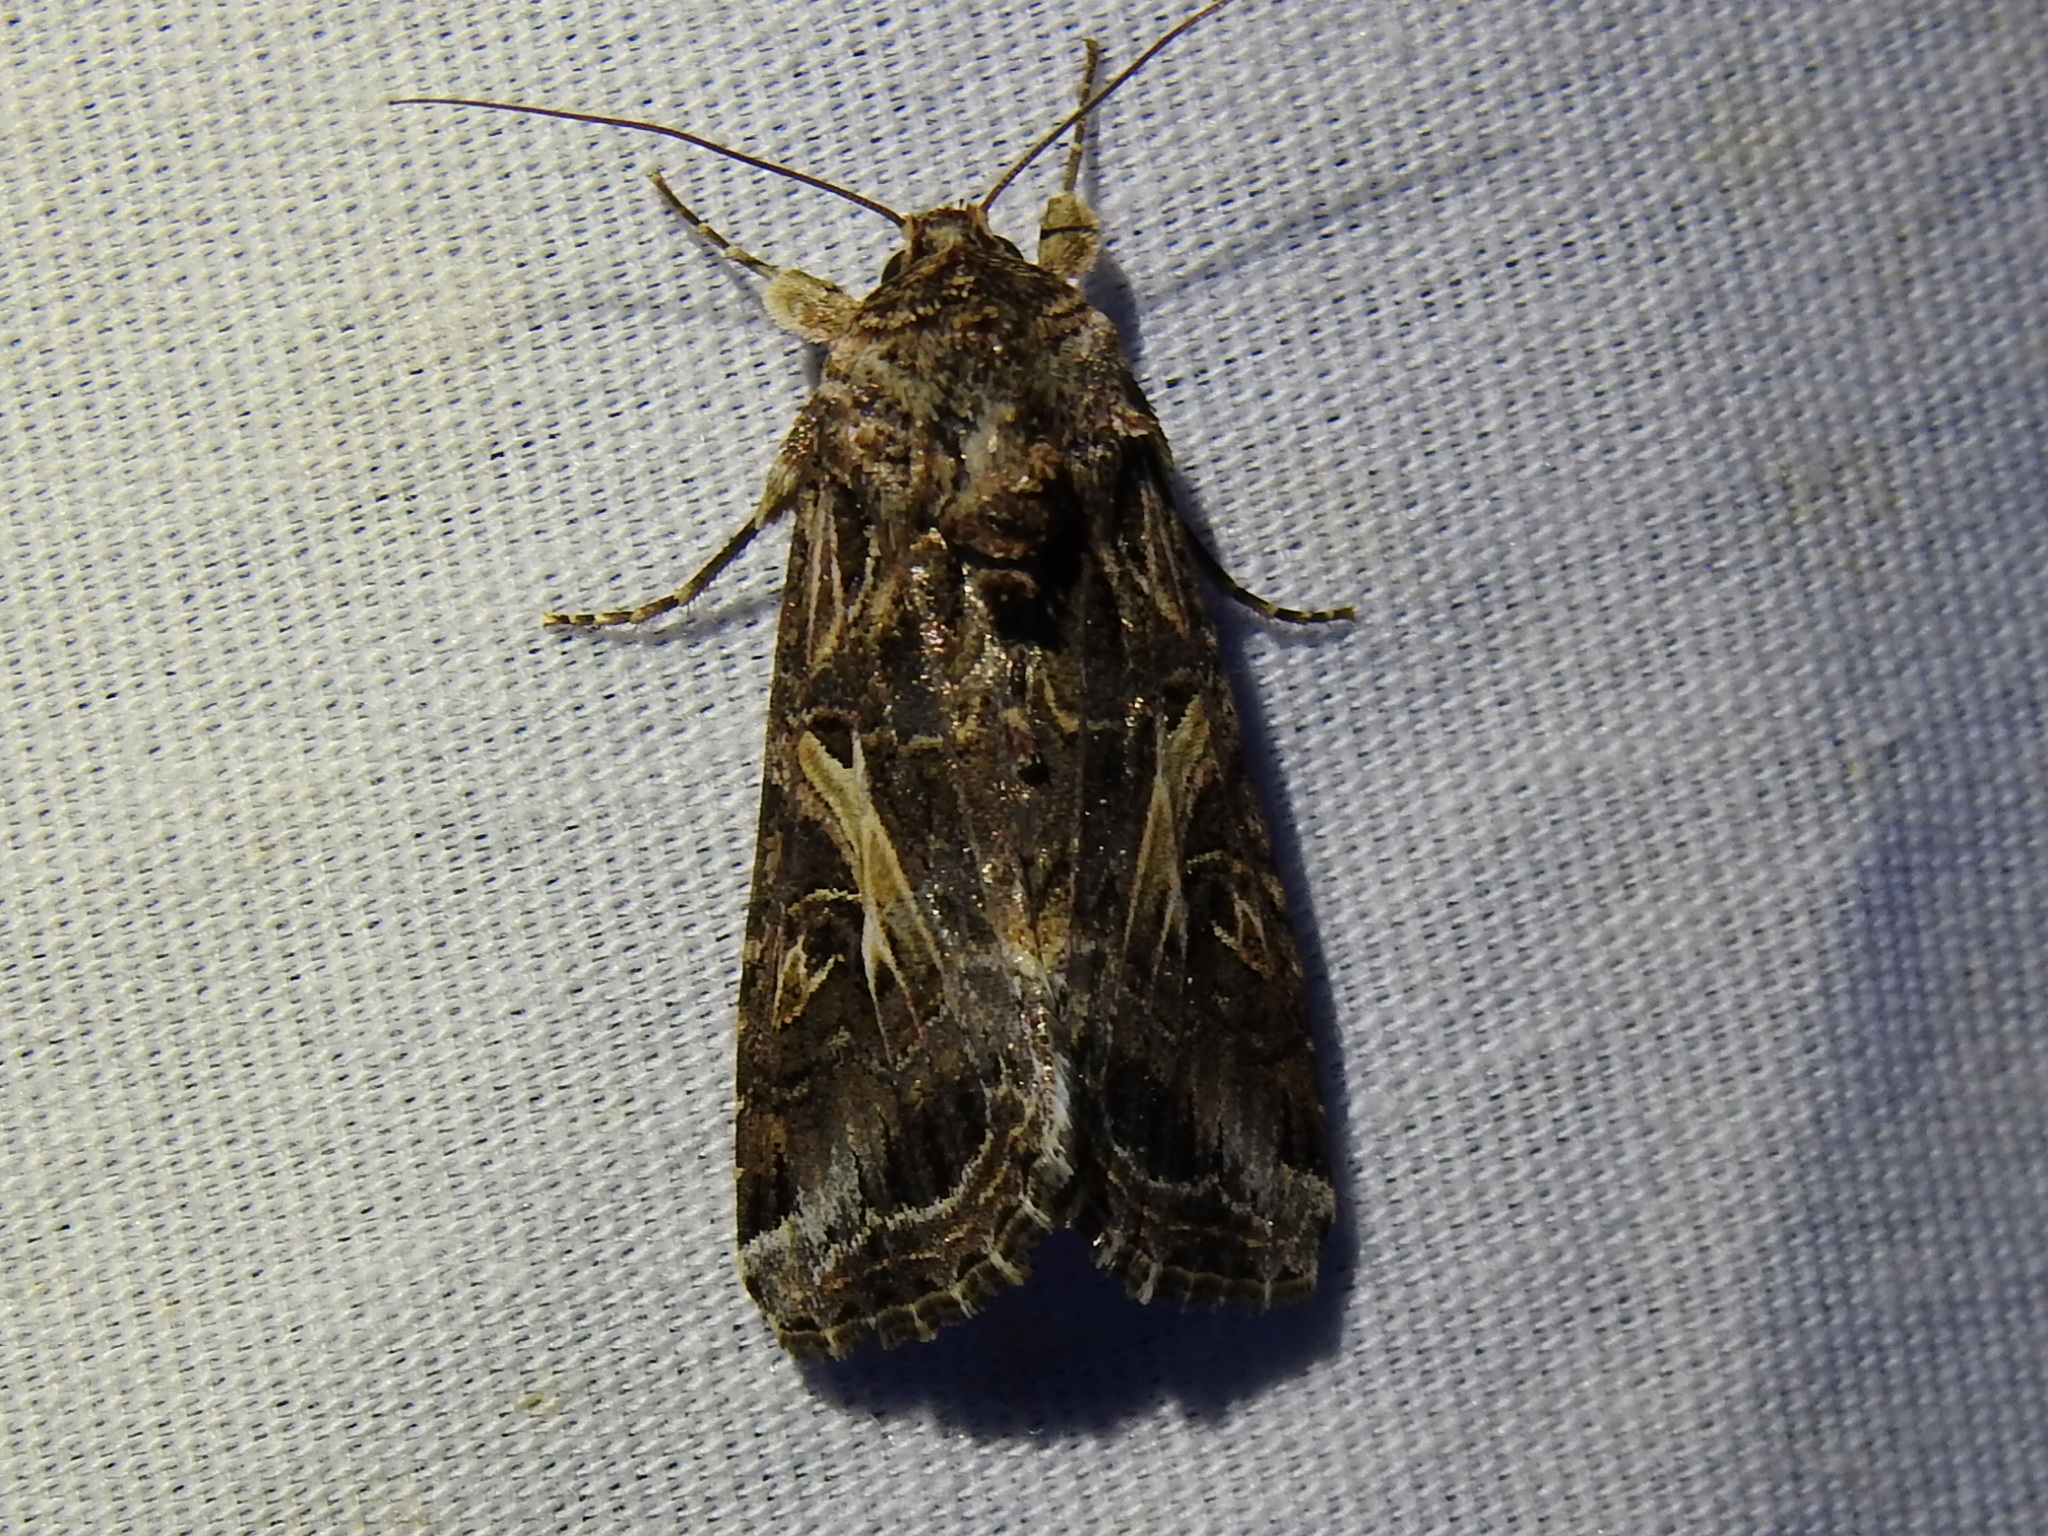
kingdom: Animalia
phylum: Arthropoda
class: Insecta
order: Lepidoptera
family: Noctuidae
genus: Spodoptera
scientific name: Spodoptera ornithogalli
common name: Yellow-striped armyworm
